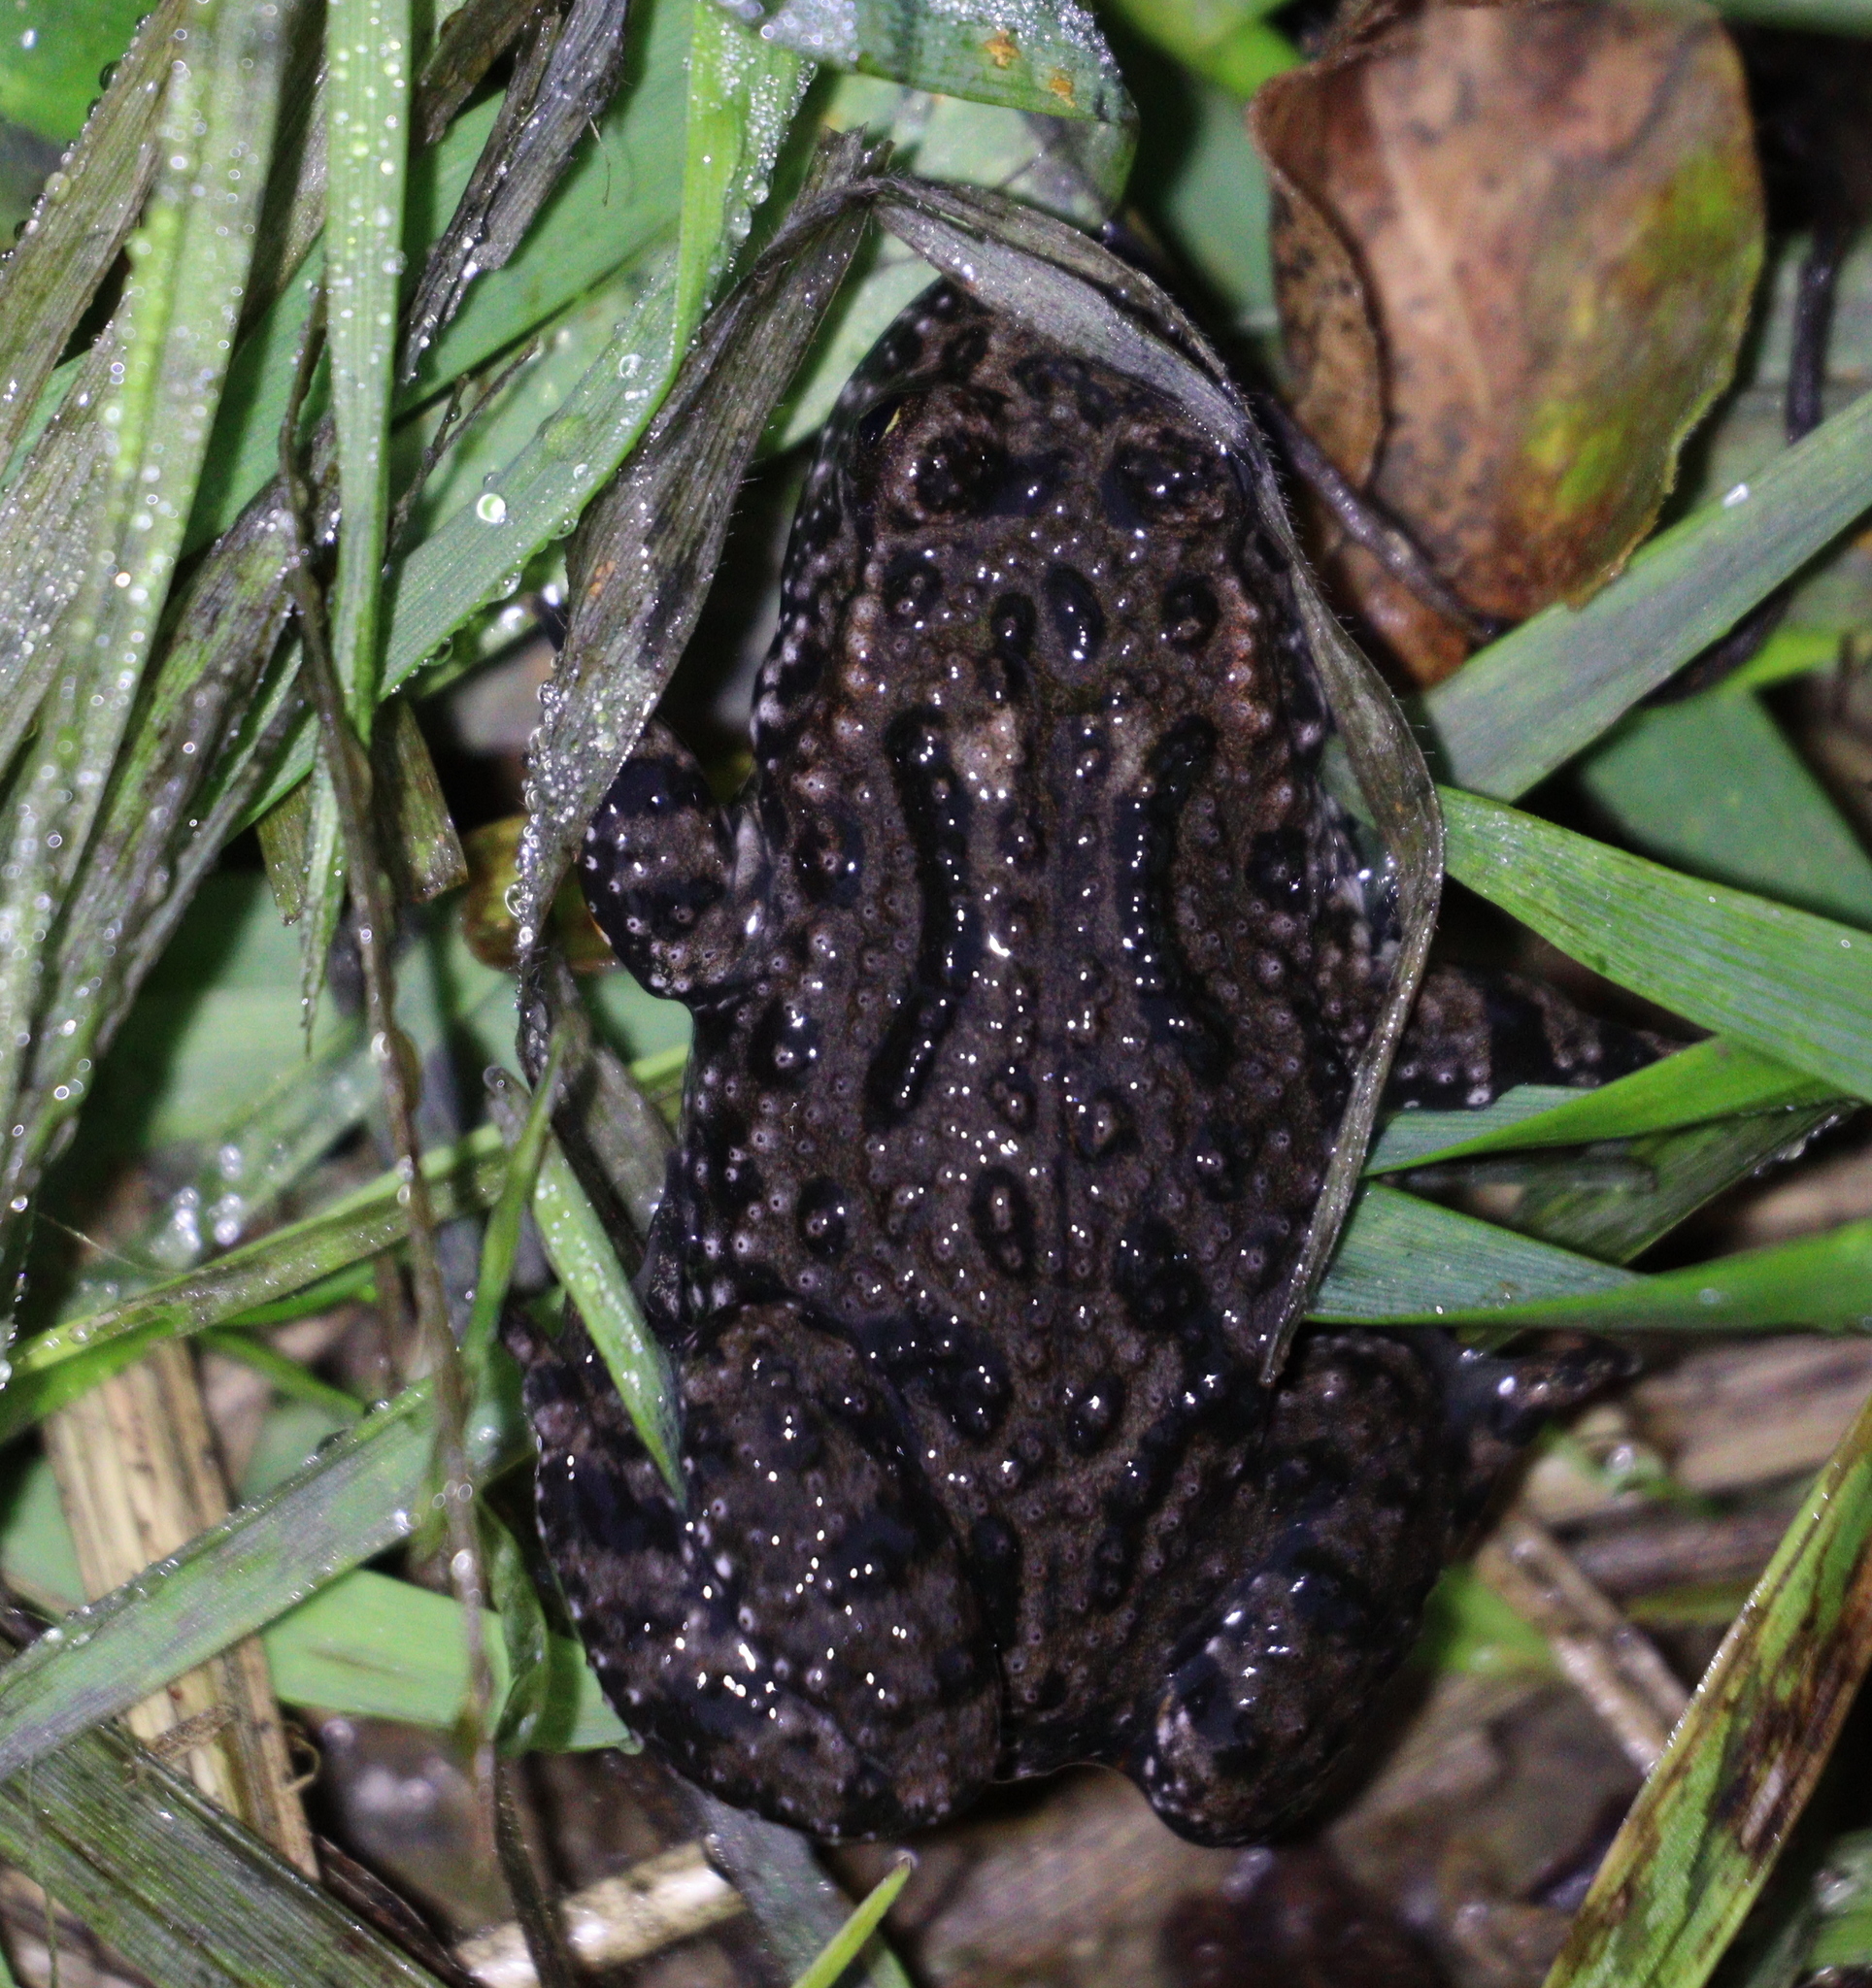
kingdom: Animalia
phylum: Chordata
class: Amphibia
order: Anura
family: Bombinatoridae
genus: Bombina
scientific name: Bombina bombina
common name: Fire-bellied toad
